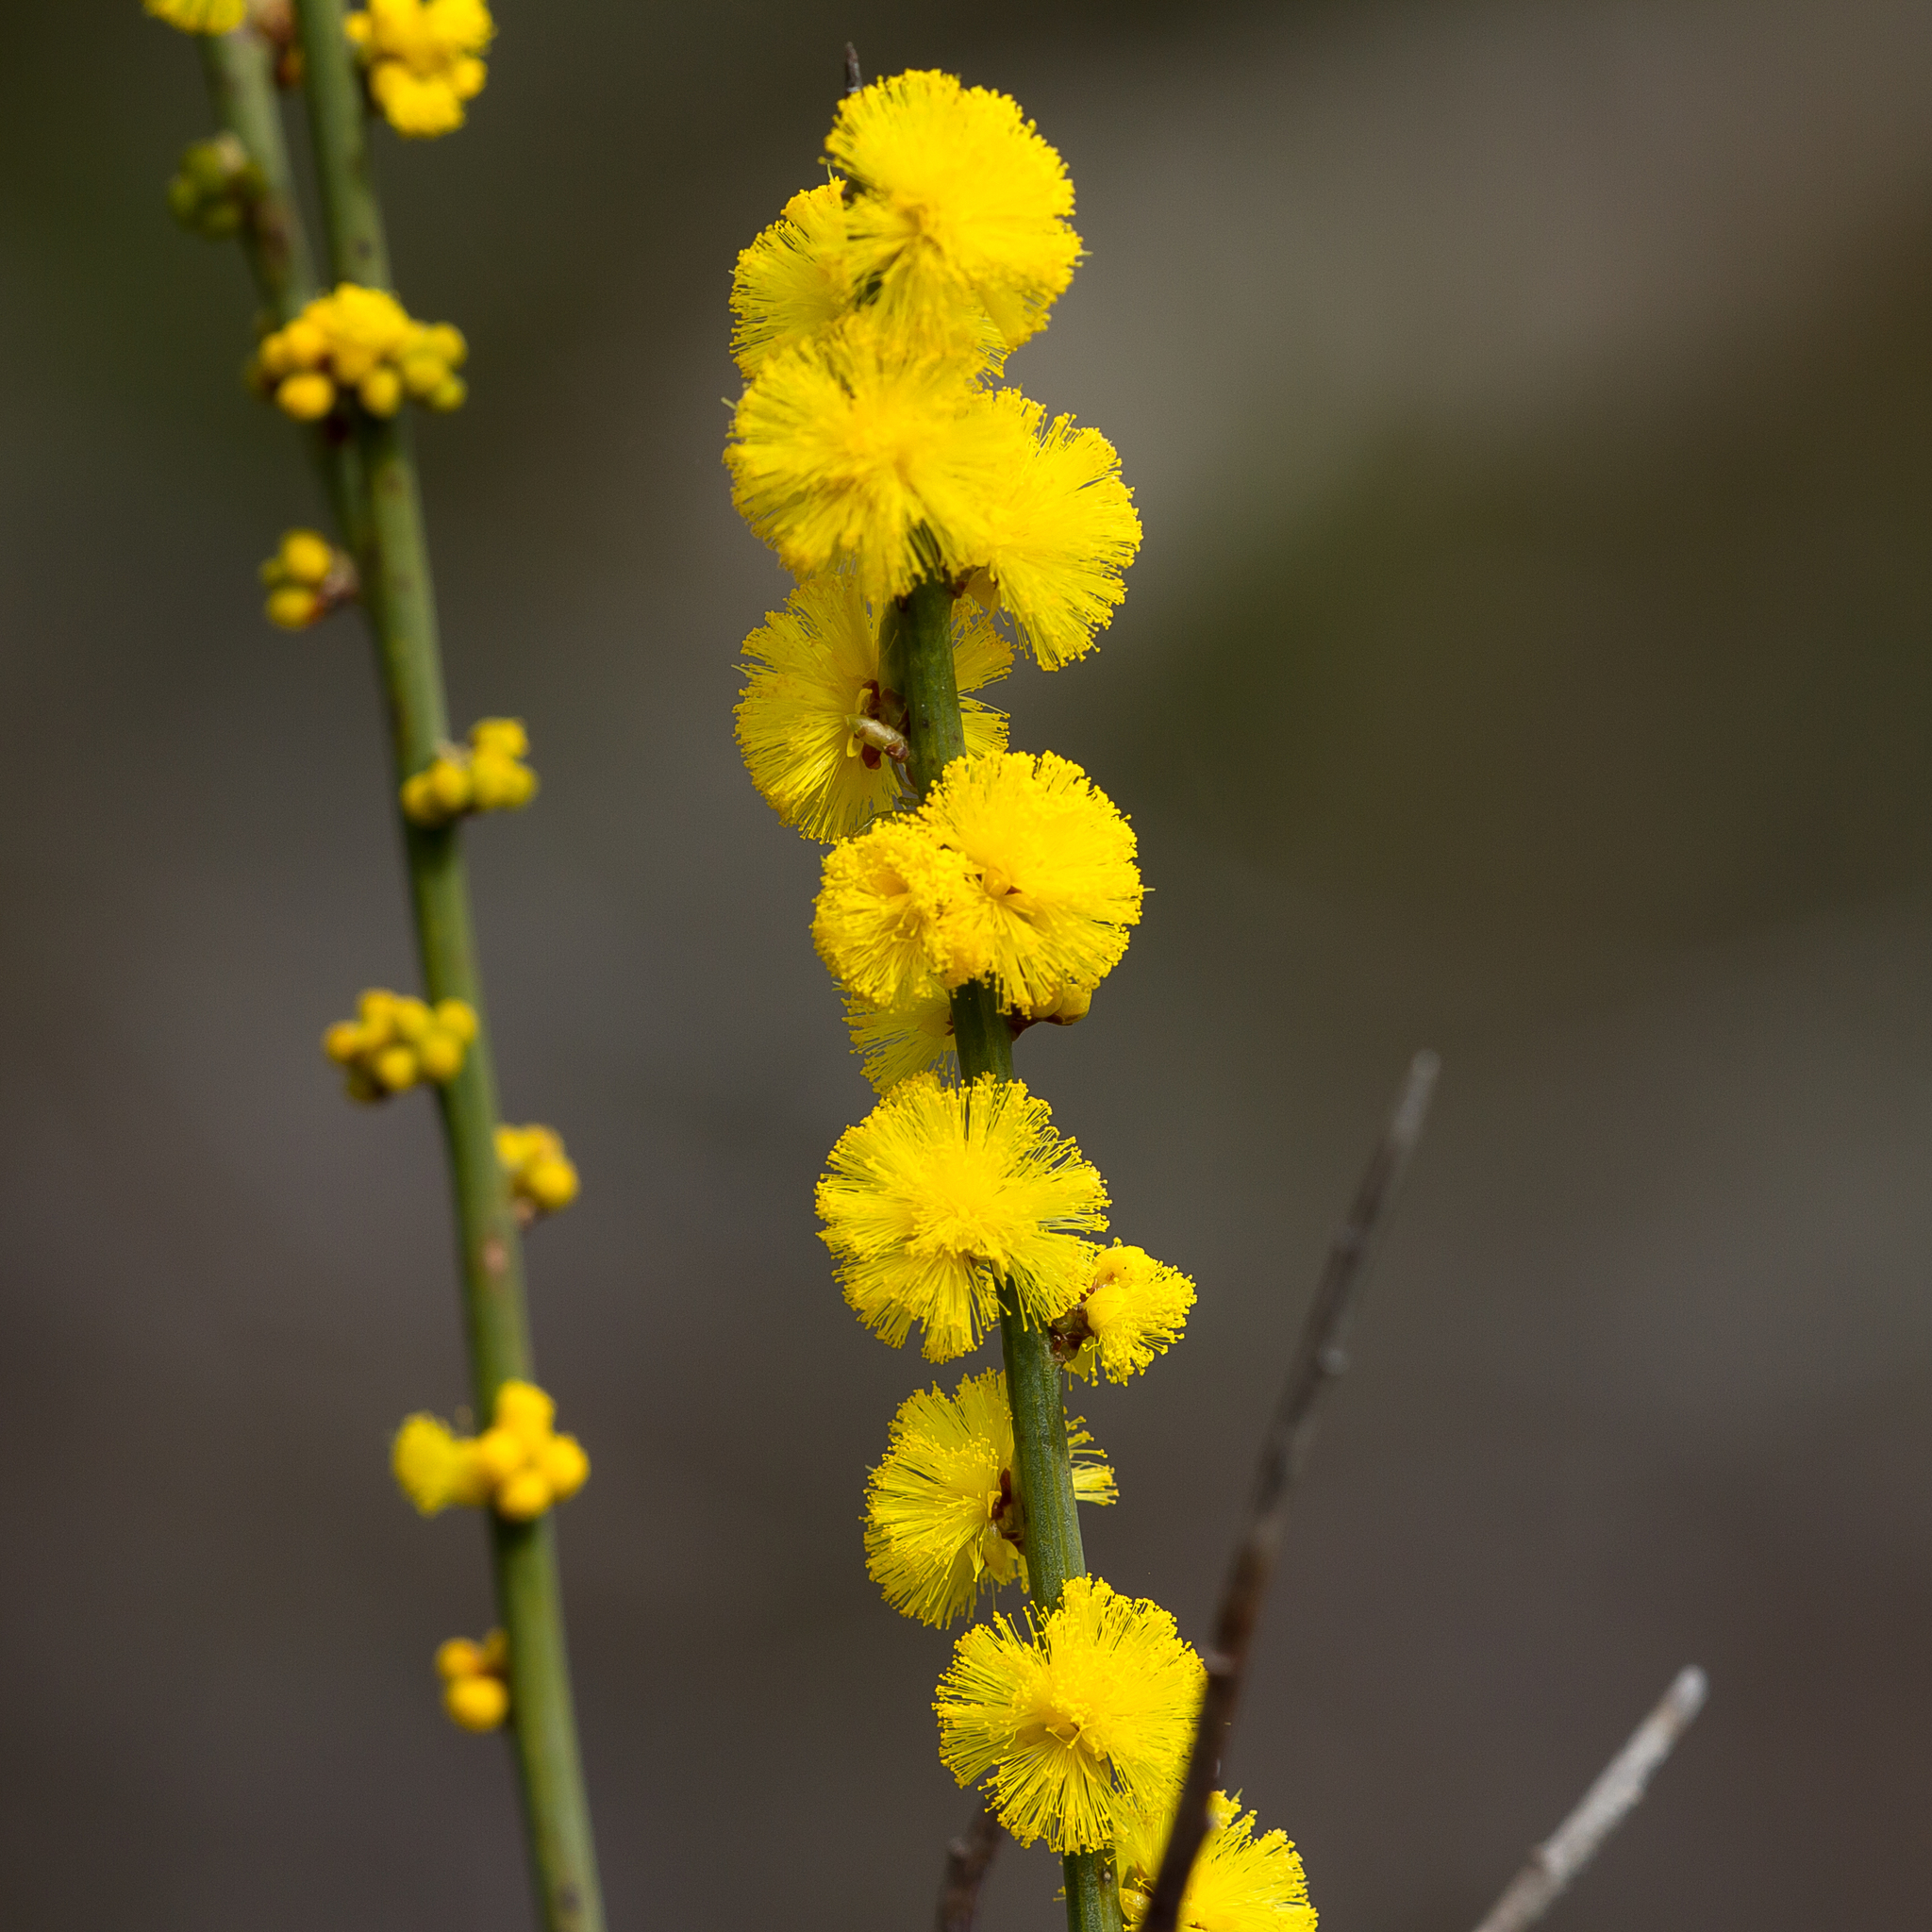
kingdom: Plantae
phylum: Tracheophyta
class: Magnoliopsida
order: Fabales
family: Fabaceae
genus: Acacia
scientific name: Acacia spinescens
